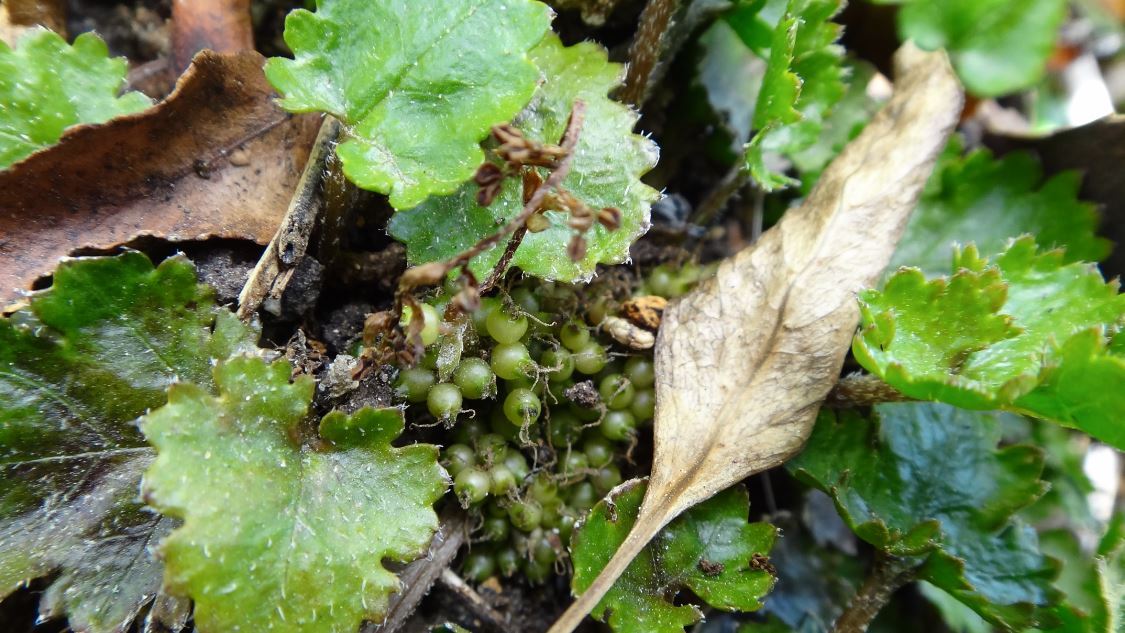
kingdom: Plantae
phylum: Tracheophyta
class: Magnoliopsida
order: Gunnerales
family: Gunneraceae
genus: Gunnera
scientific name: Gunnera monoica
